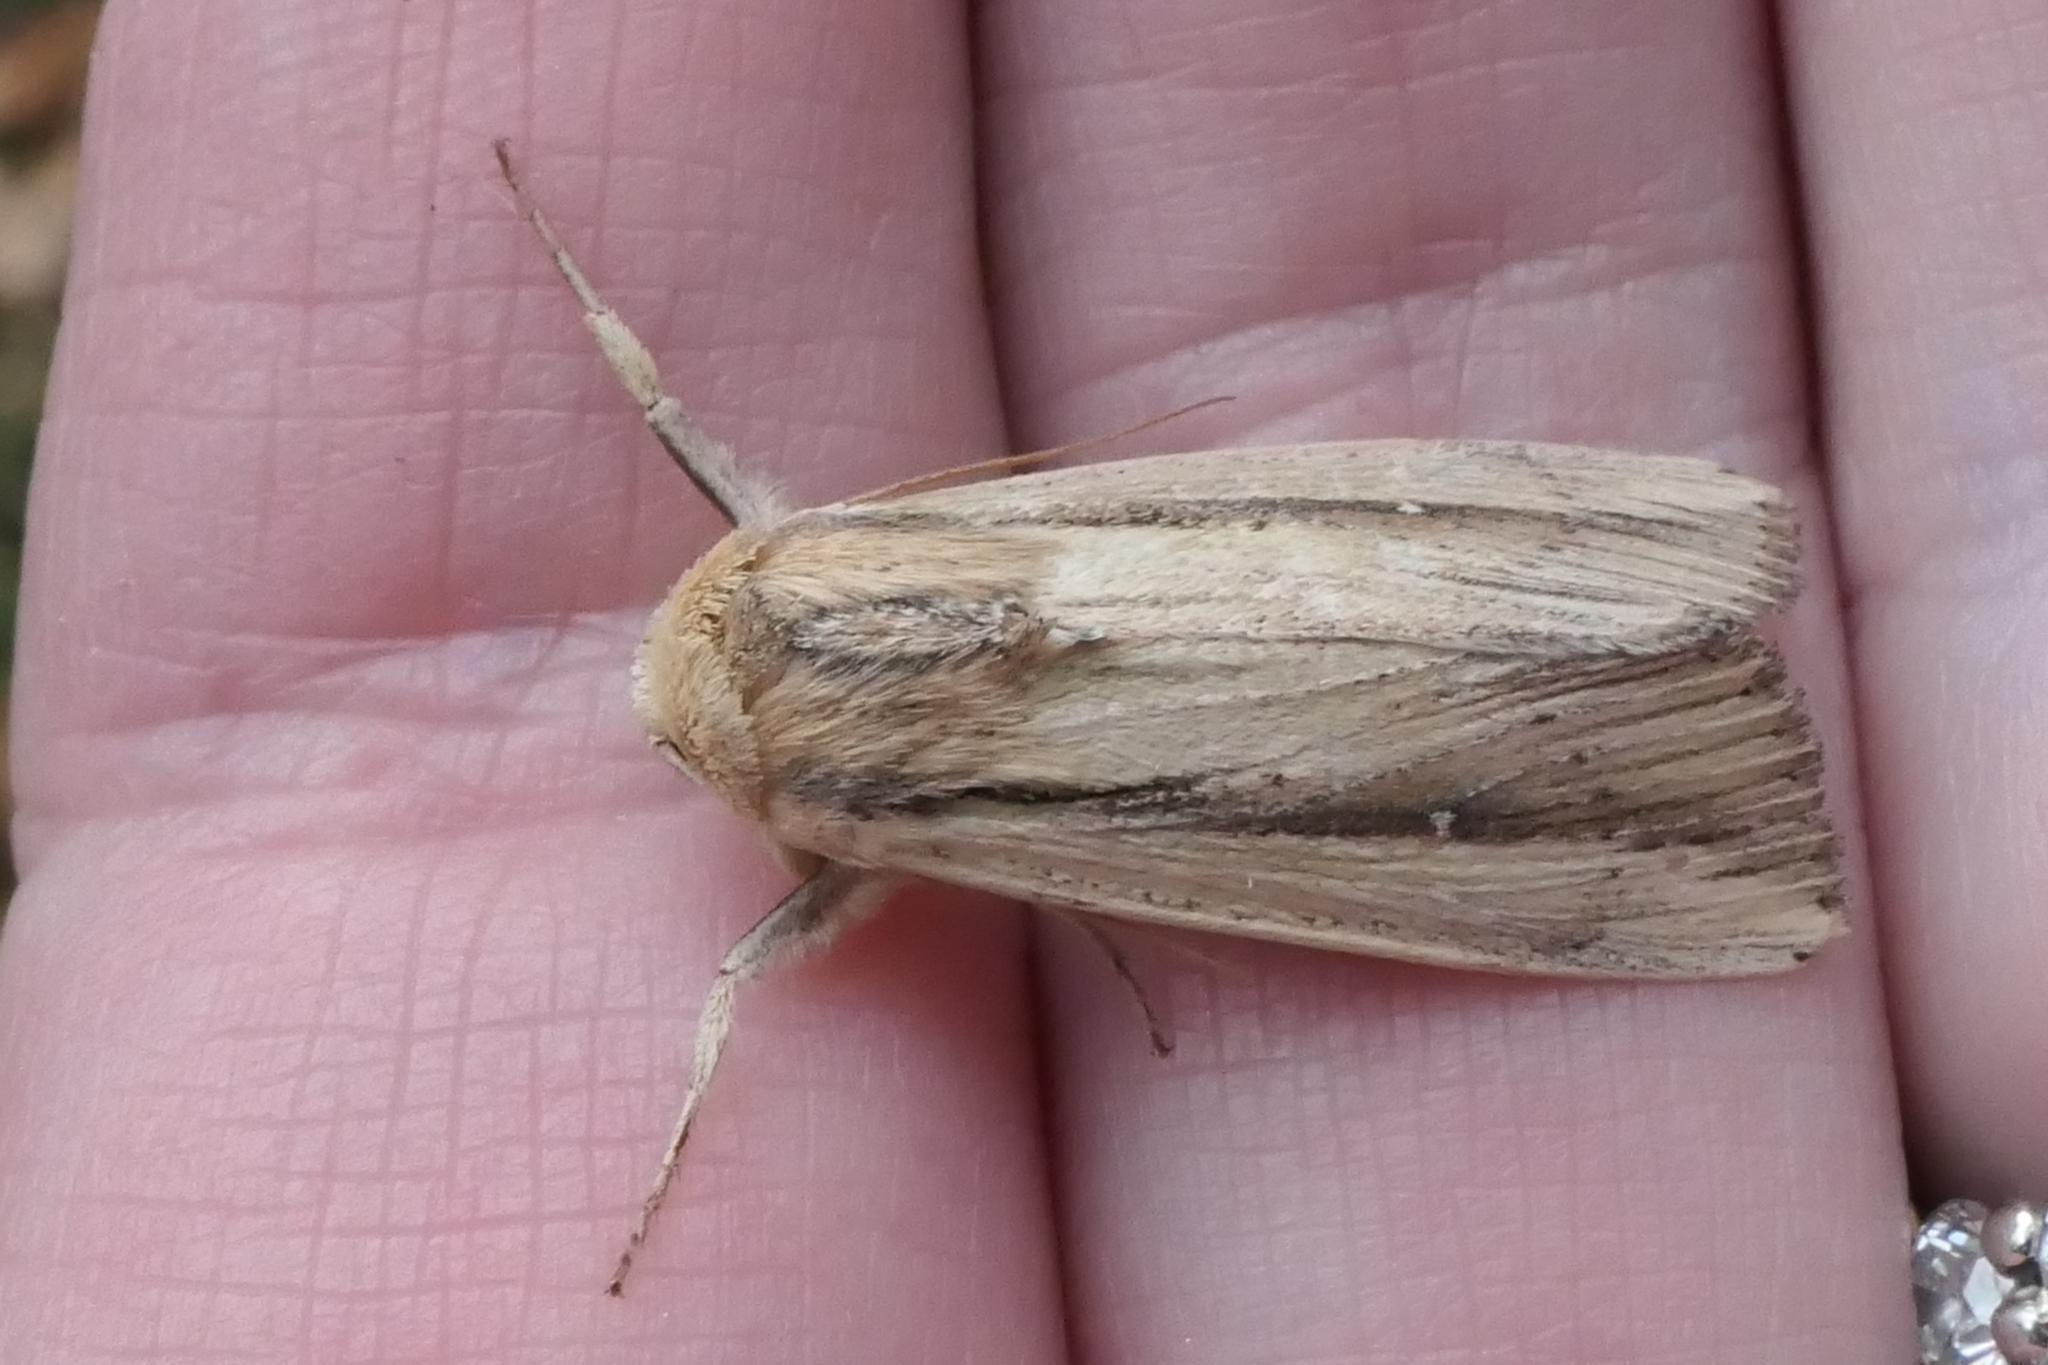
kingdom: Animalia
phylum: Arthropoda
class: Insecta
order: Lepidoptera
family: Noctuidae
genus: Leucania
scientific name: Leucania stenographa
